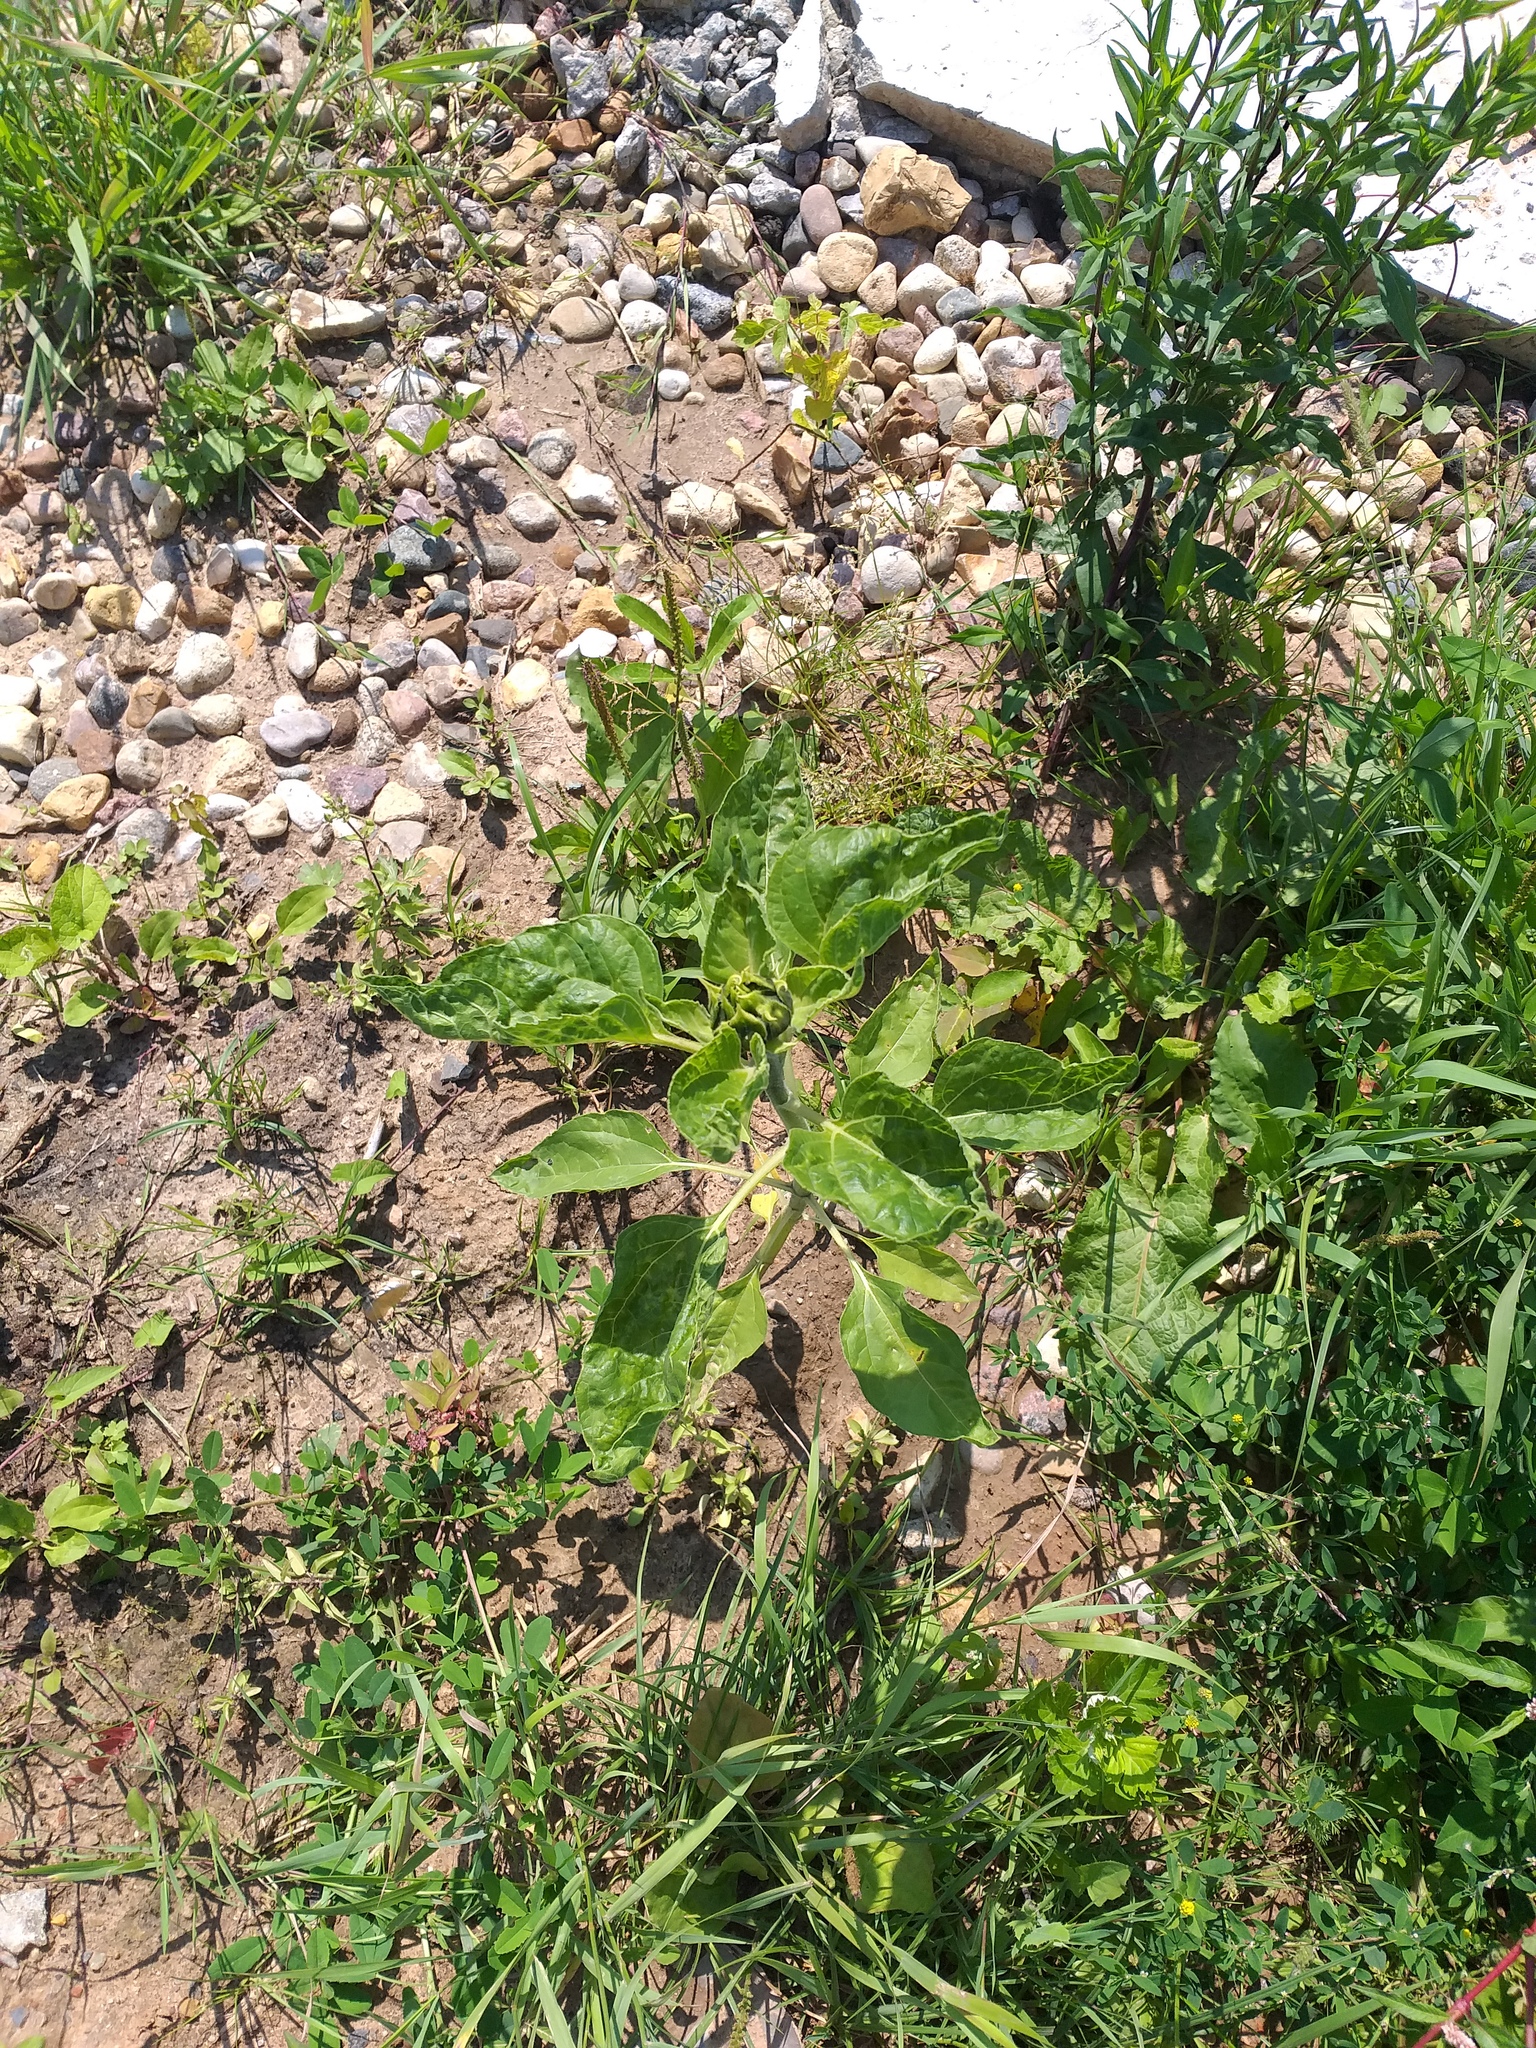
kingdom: Plantae
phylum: Tracheophyta
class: Magnoliopsida
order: Asterales
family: Asteraceae
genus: Helianthus
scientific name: Helianthus annuus
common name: Sunflower
